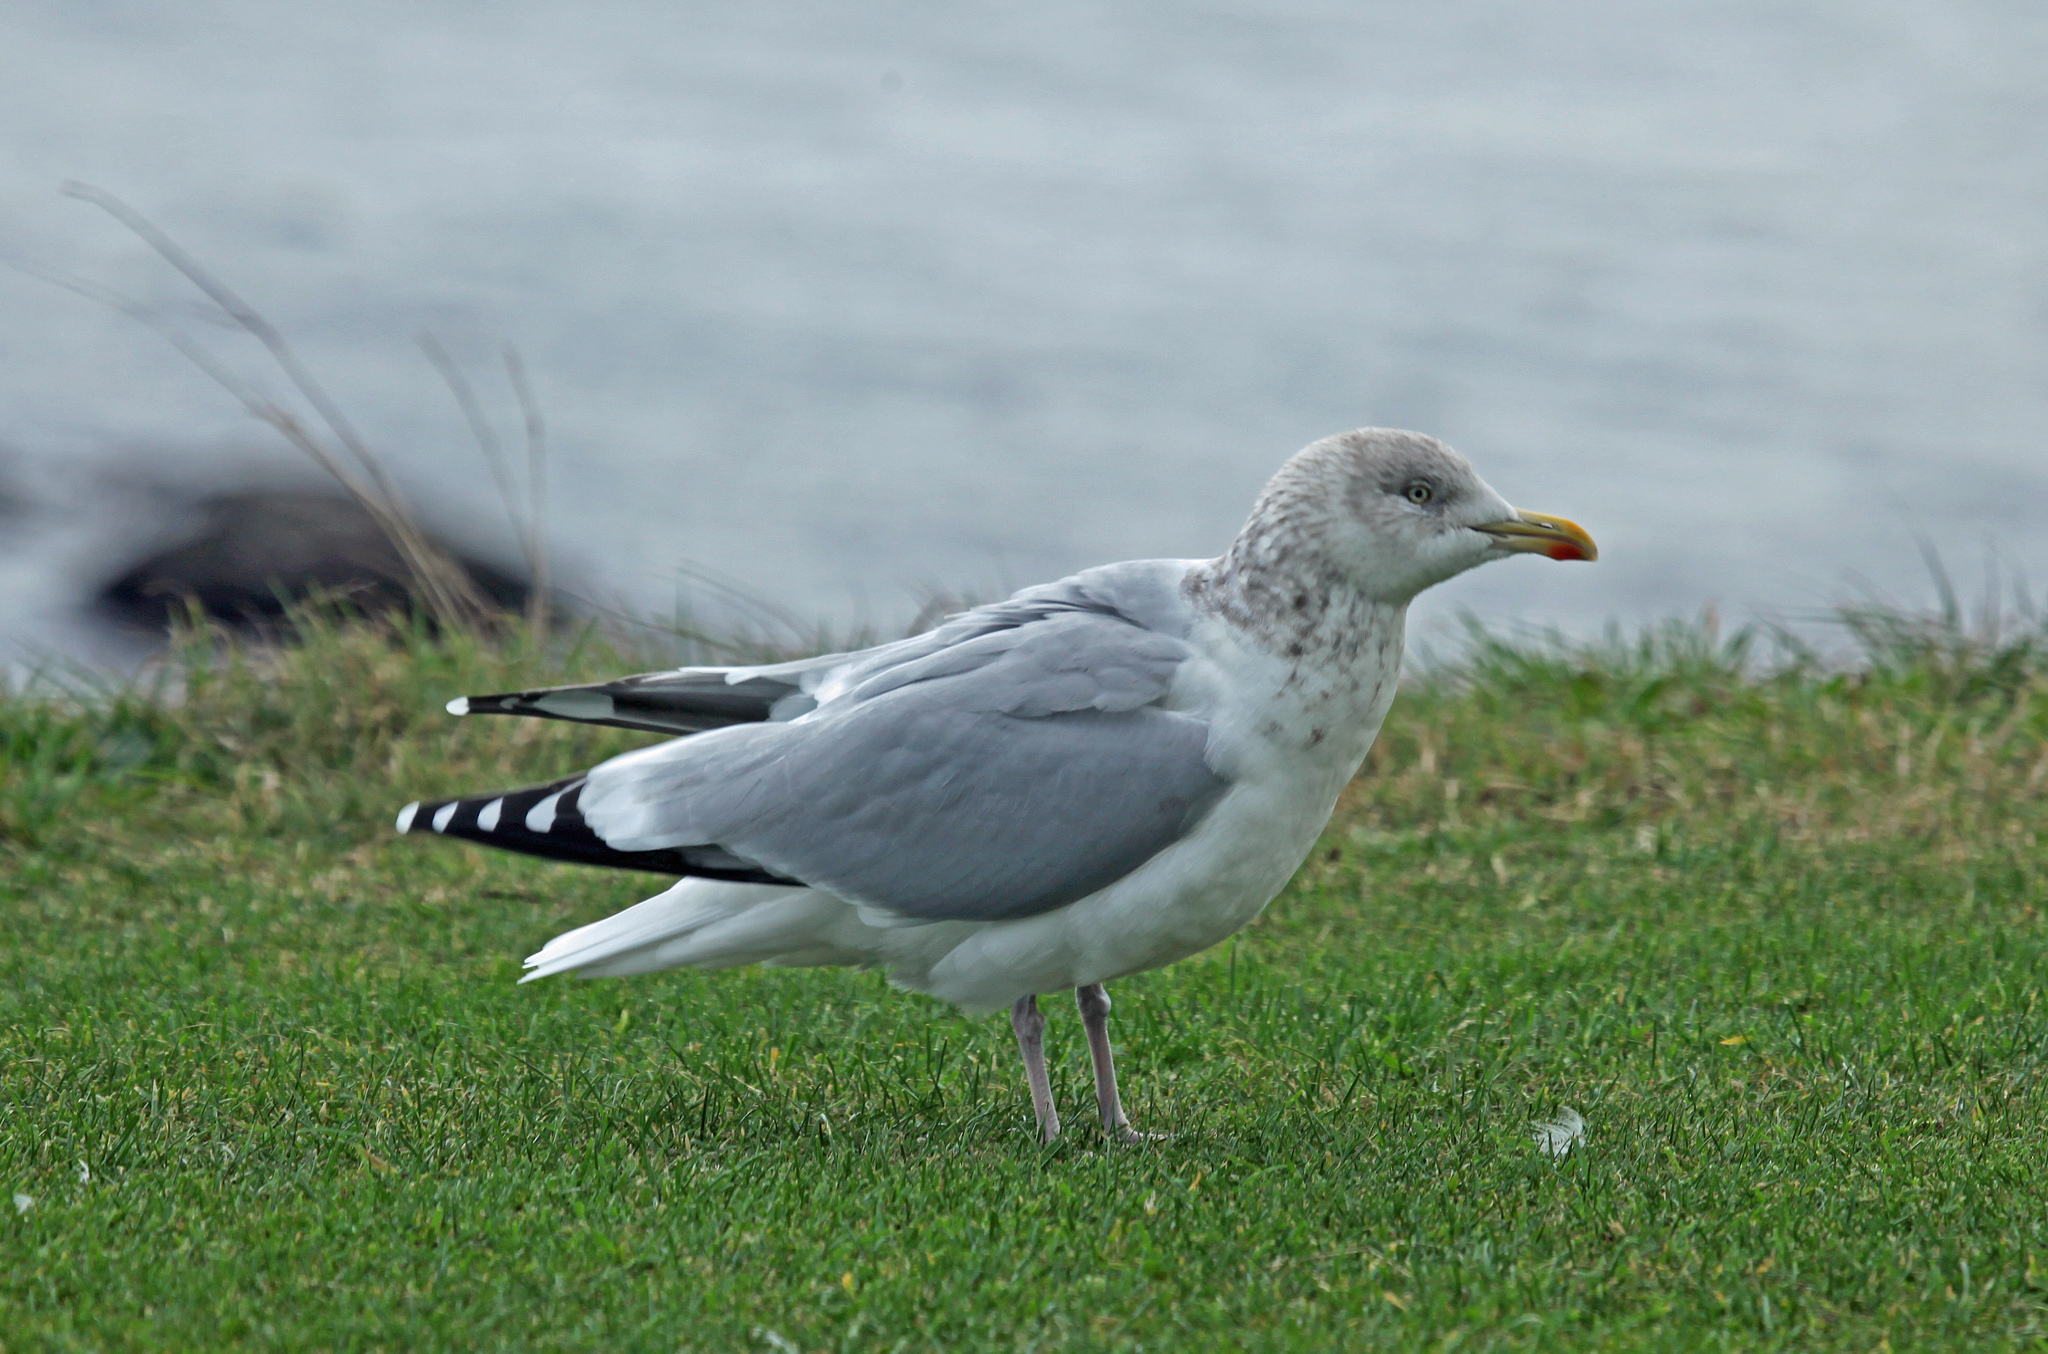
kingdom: Animalia
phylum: Chordata
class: Aves
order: Charadriiformes
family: Laridae
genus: Larus
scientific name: Larus argentatus
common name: Herring gull
